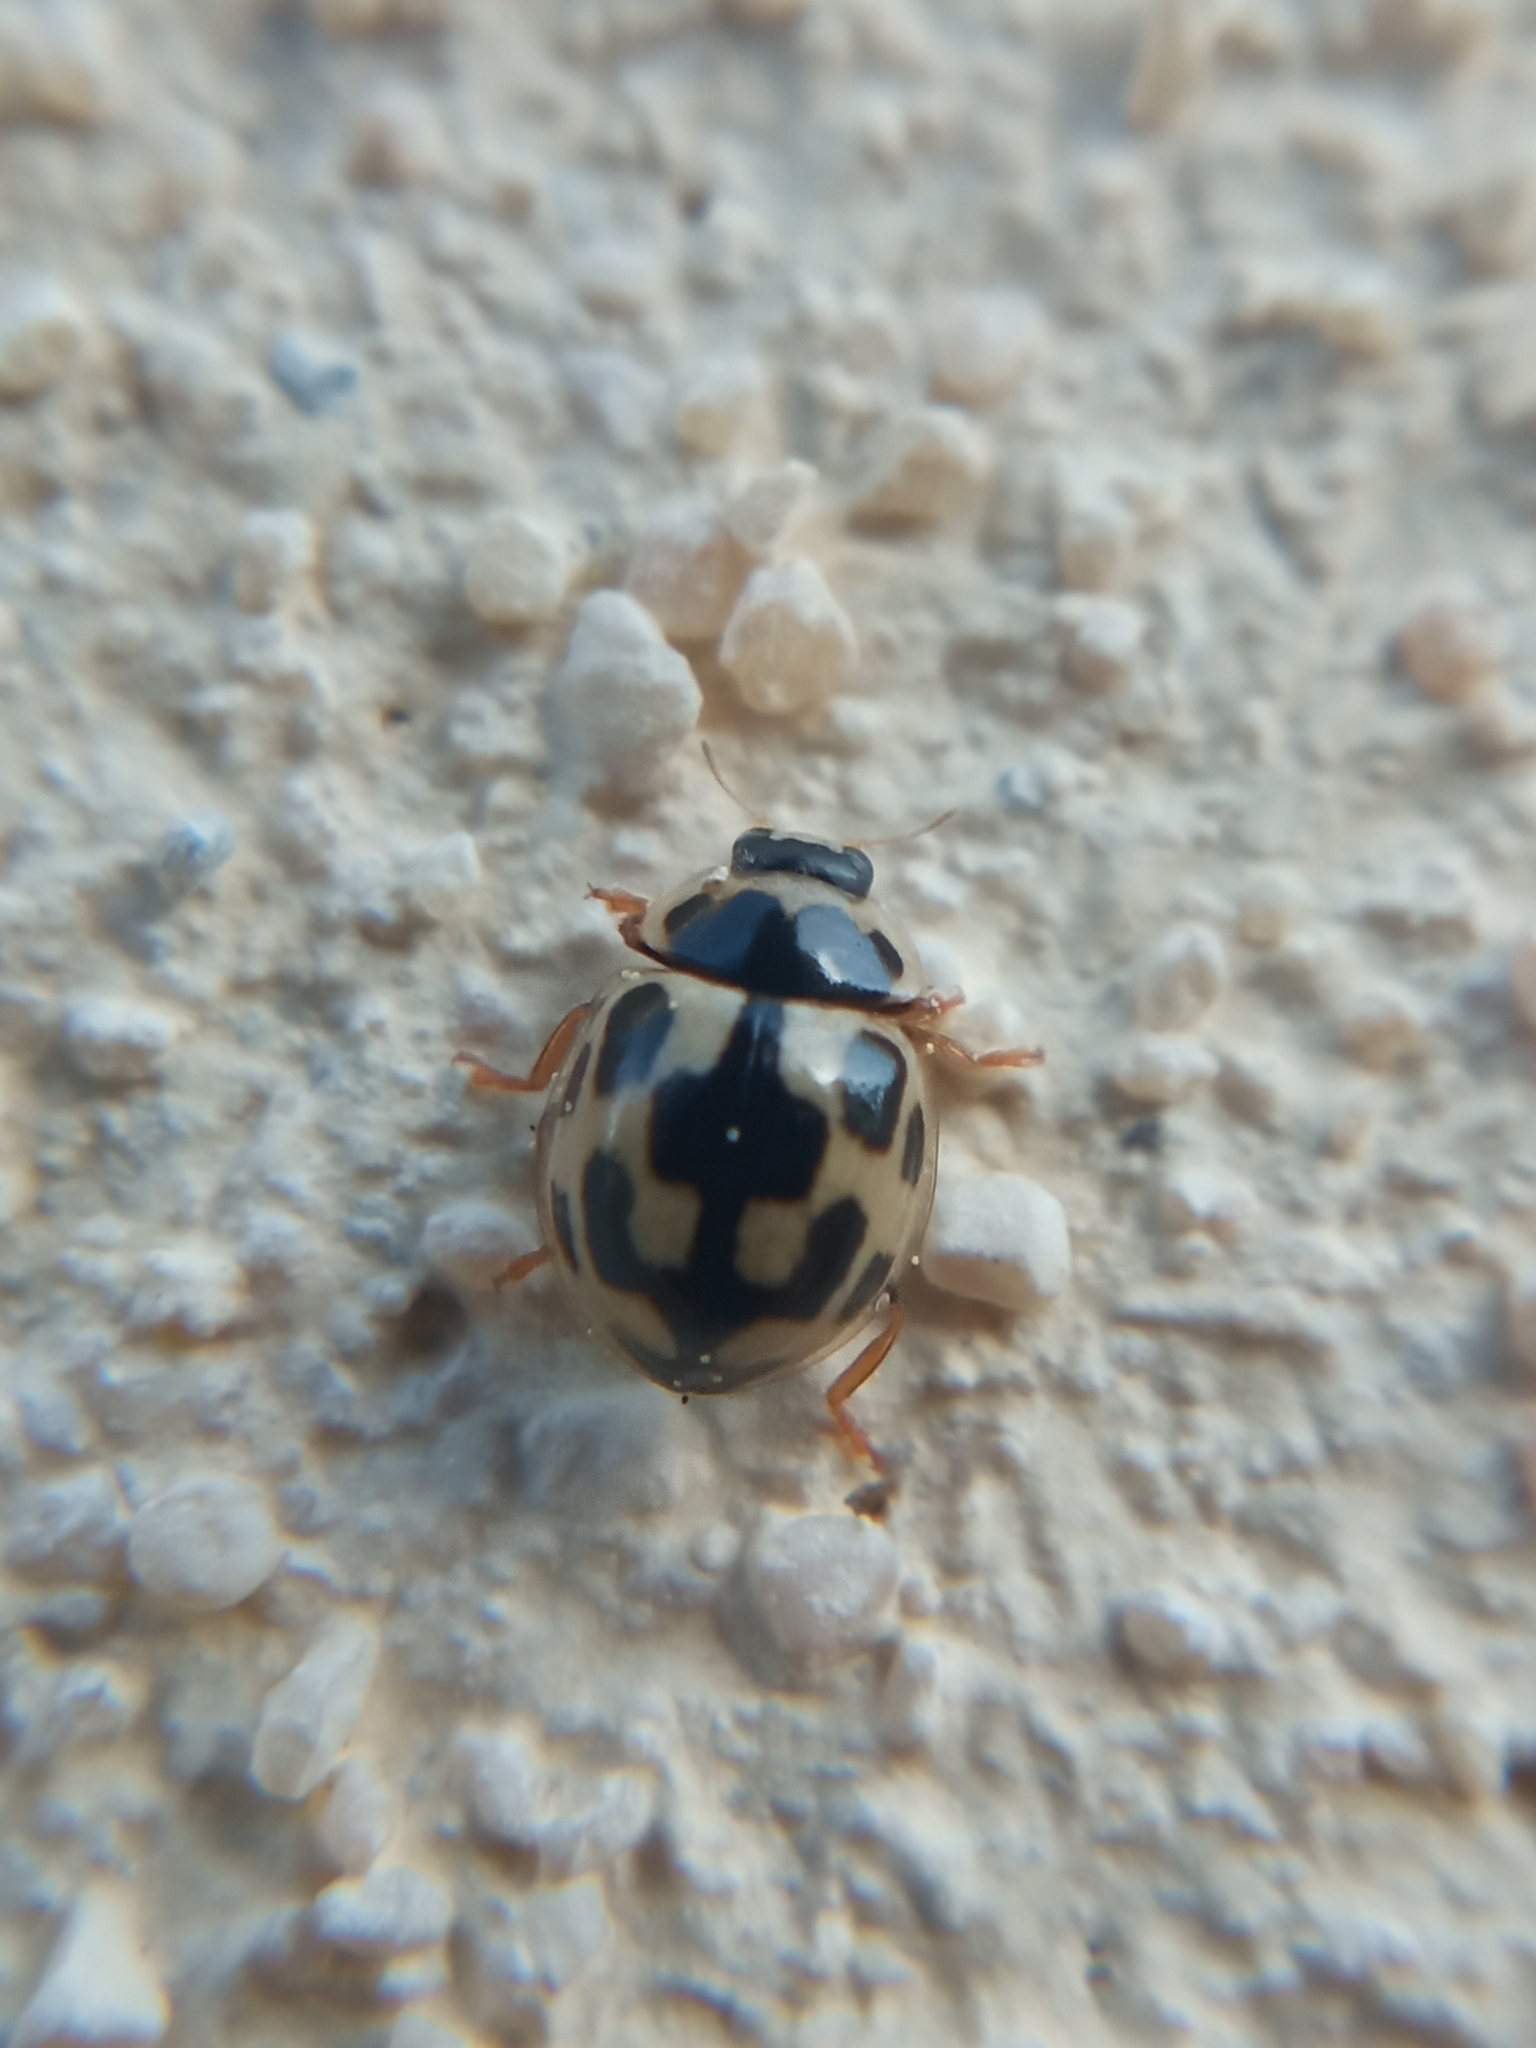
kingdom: Animalia
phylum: Arthropoda
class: Insecta
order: Coleoptera
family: Coccinellidae
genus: Propylaea
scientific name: Propylaea quatuordecimpunctata
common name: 14-spotted ladybird beetle
